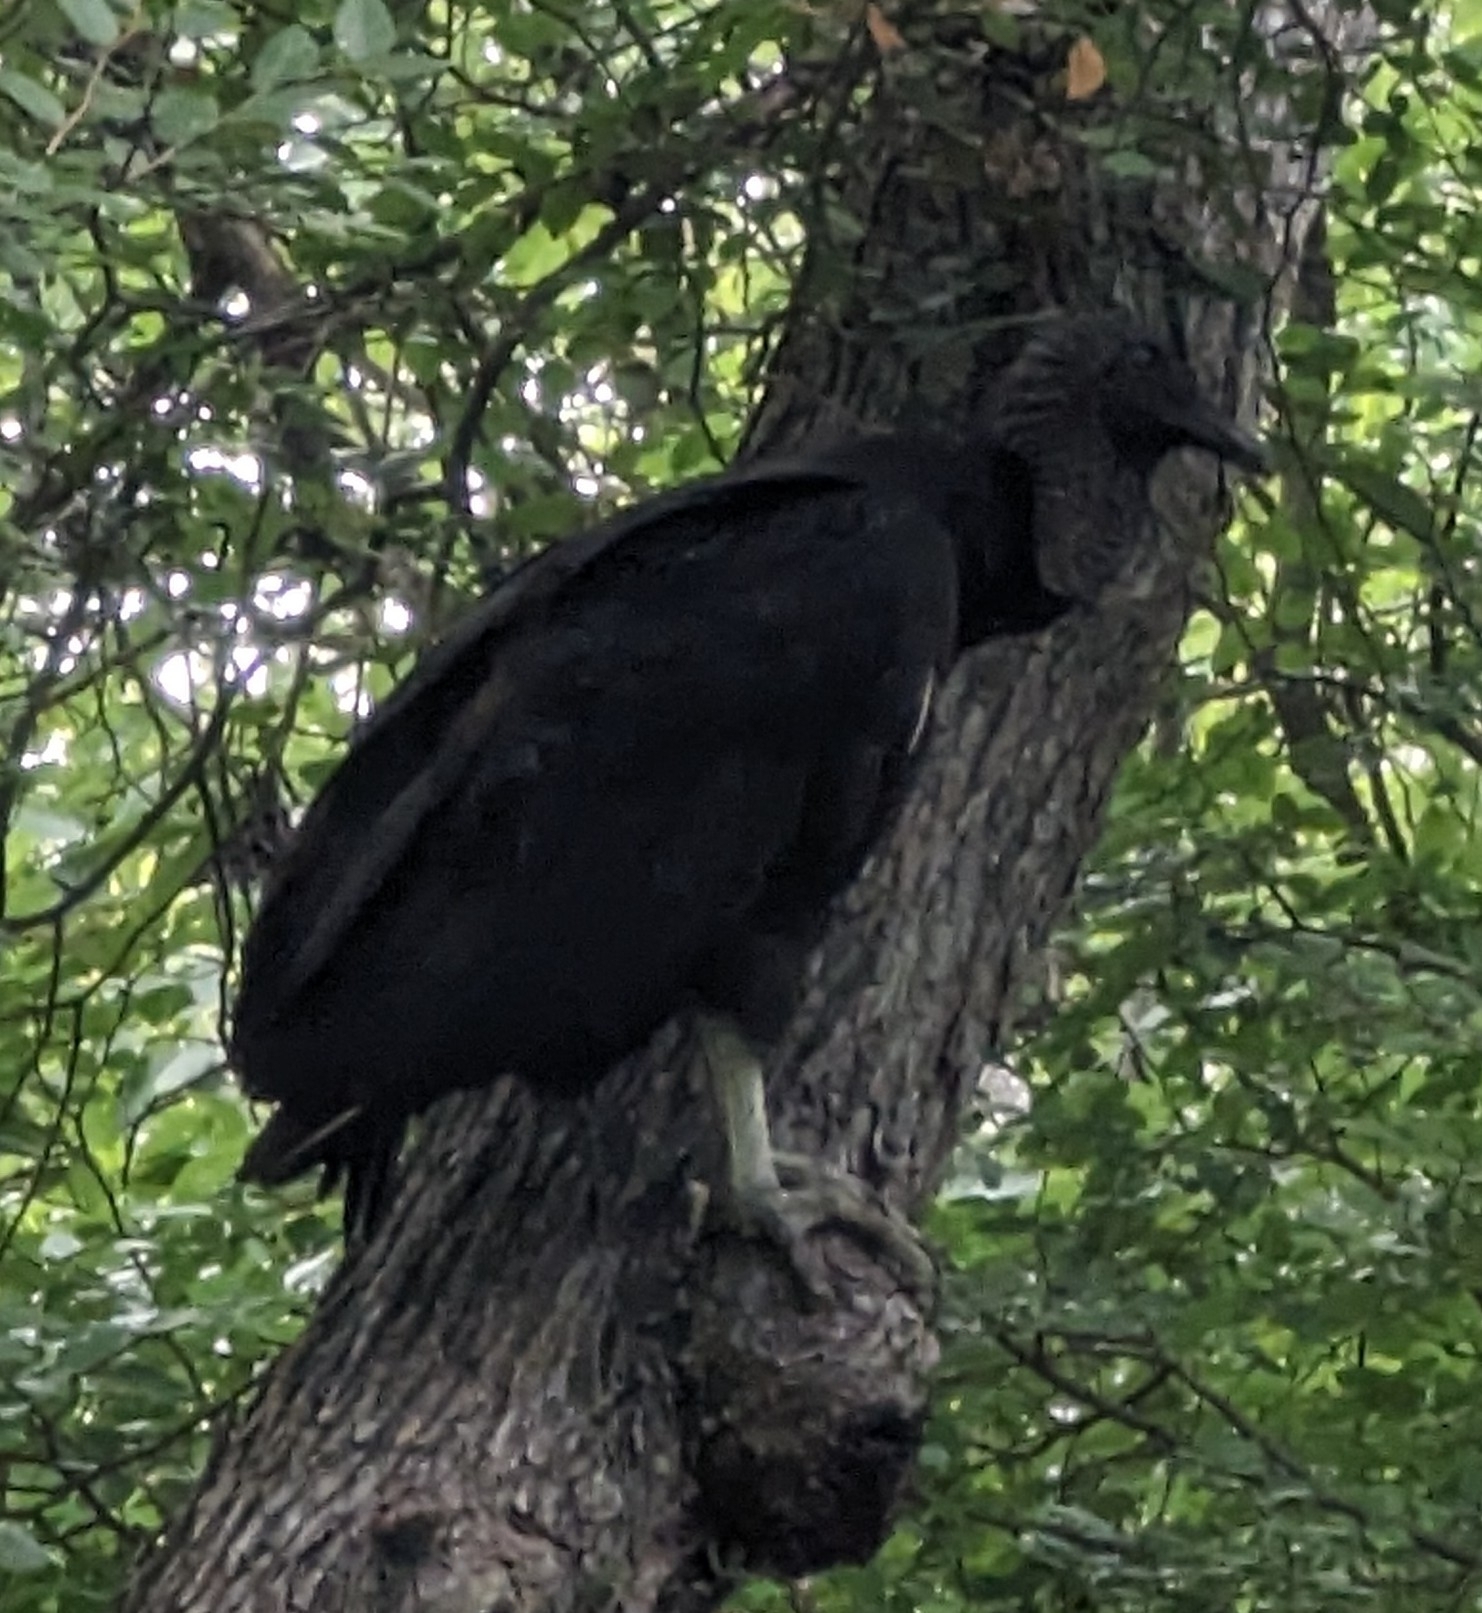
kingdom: Animalia
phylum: Chordata
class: Aves
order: Accipitriformes
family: Cathartidae
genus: Coragyps
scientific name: Coragyps atratus
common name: Black vulture
